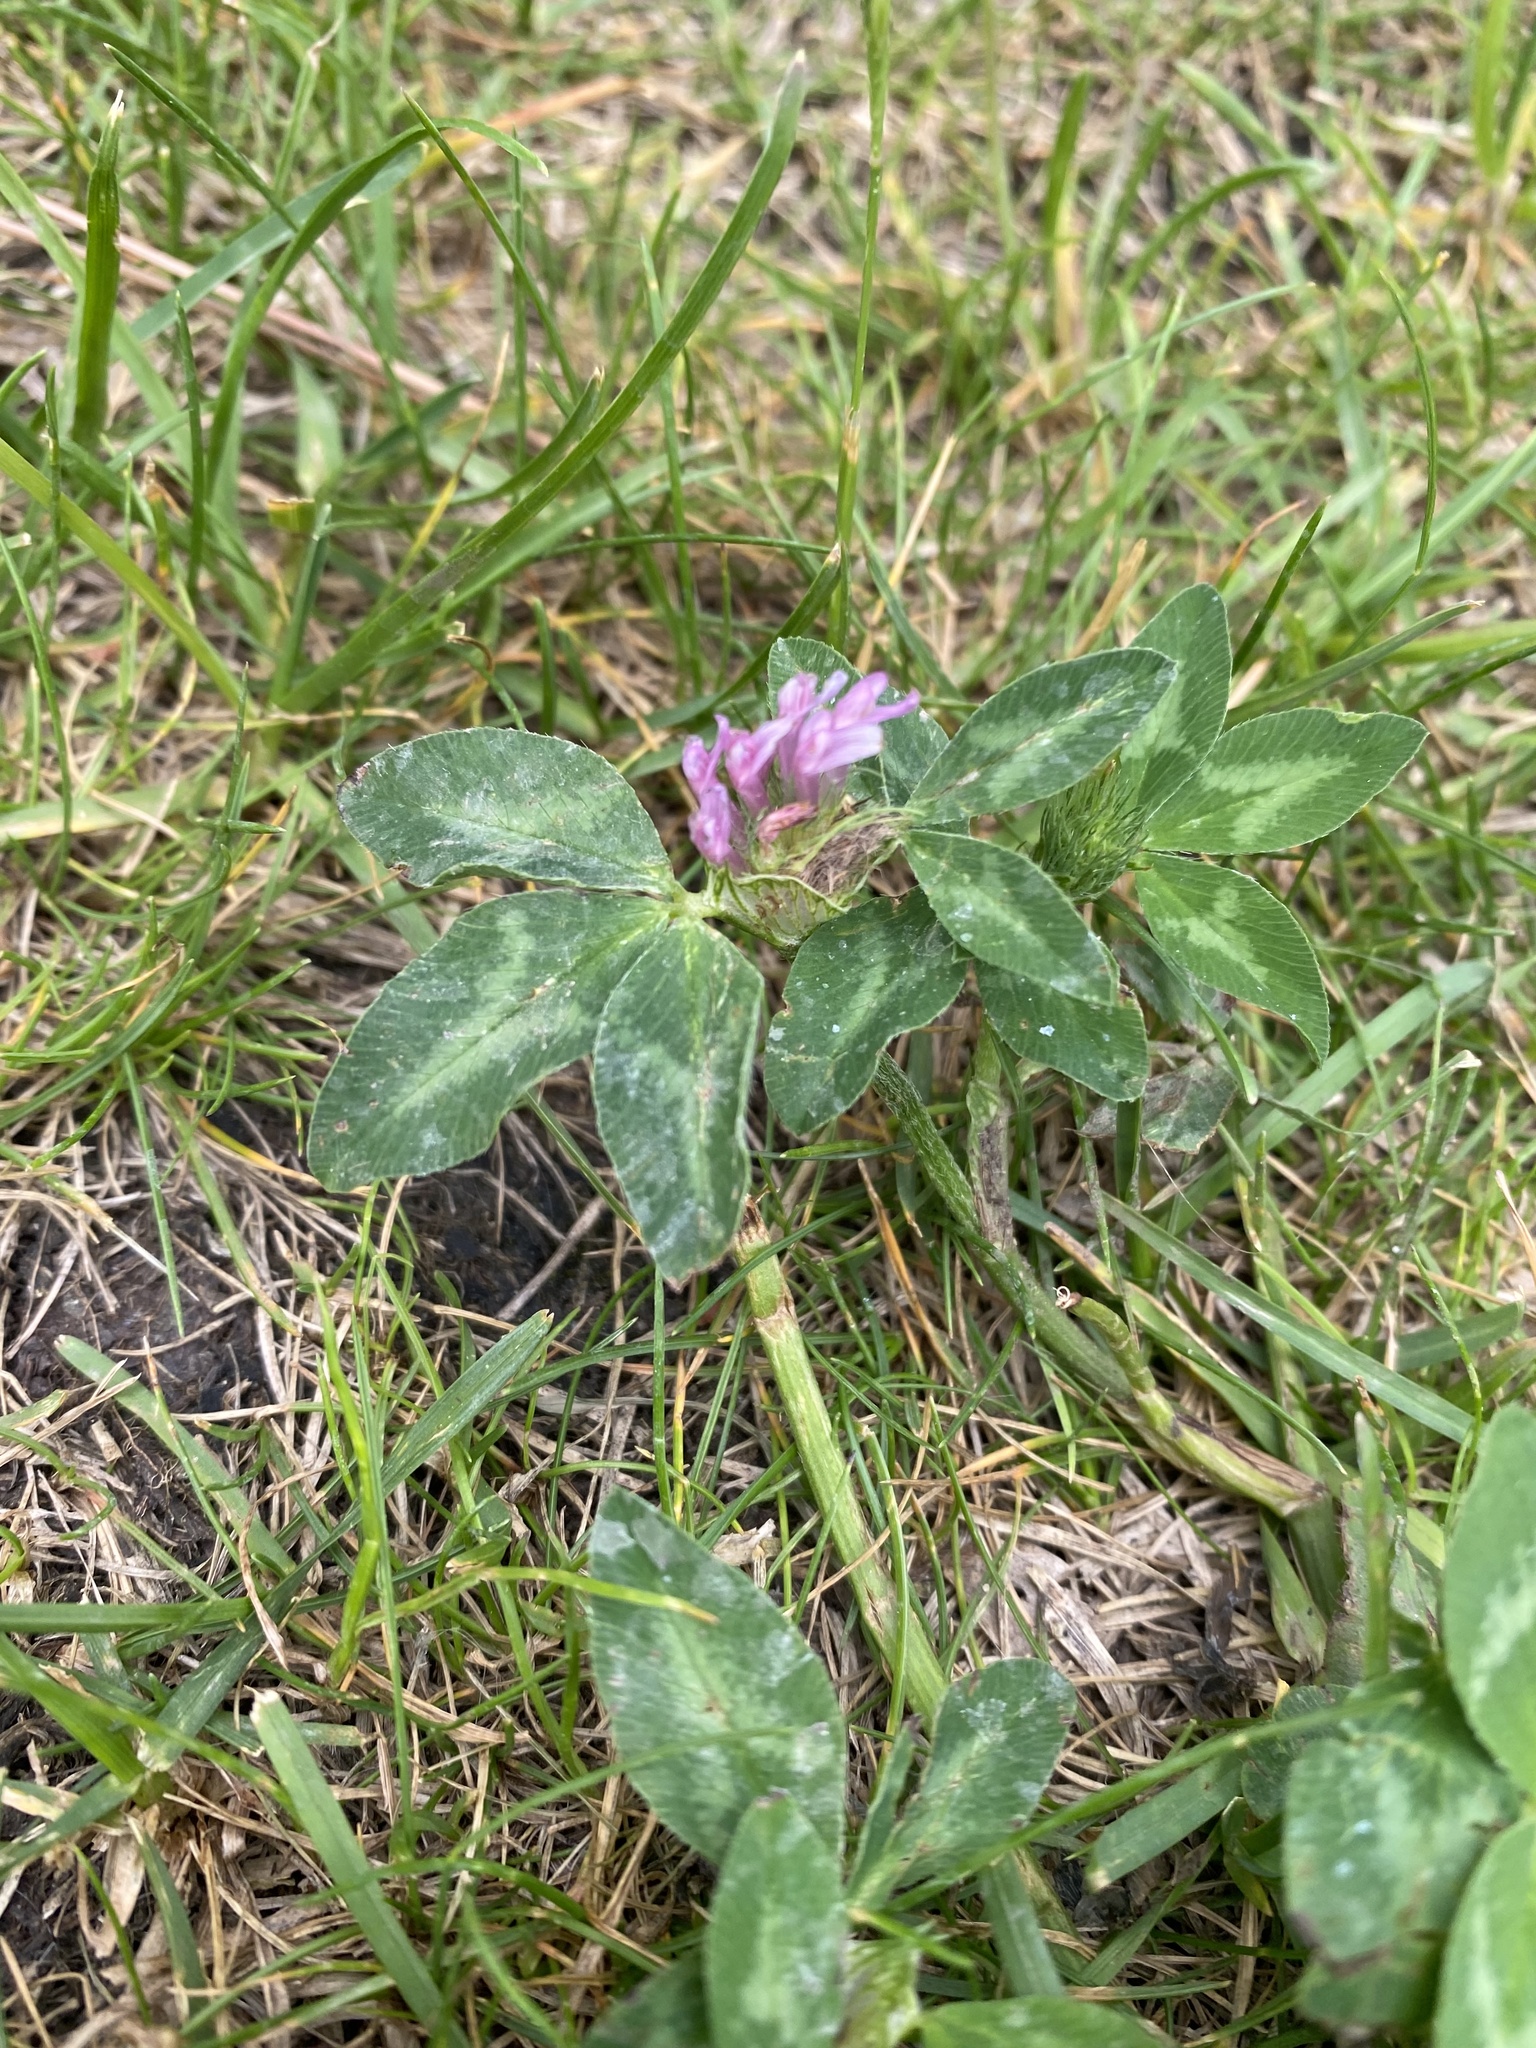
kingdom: Plantae
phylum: Tracheophyta
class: Magnoliopsida
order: Fabales
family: Fabaceae
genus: Trifolium
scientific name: Trifolium pratense
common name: Red clover
